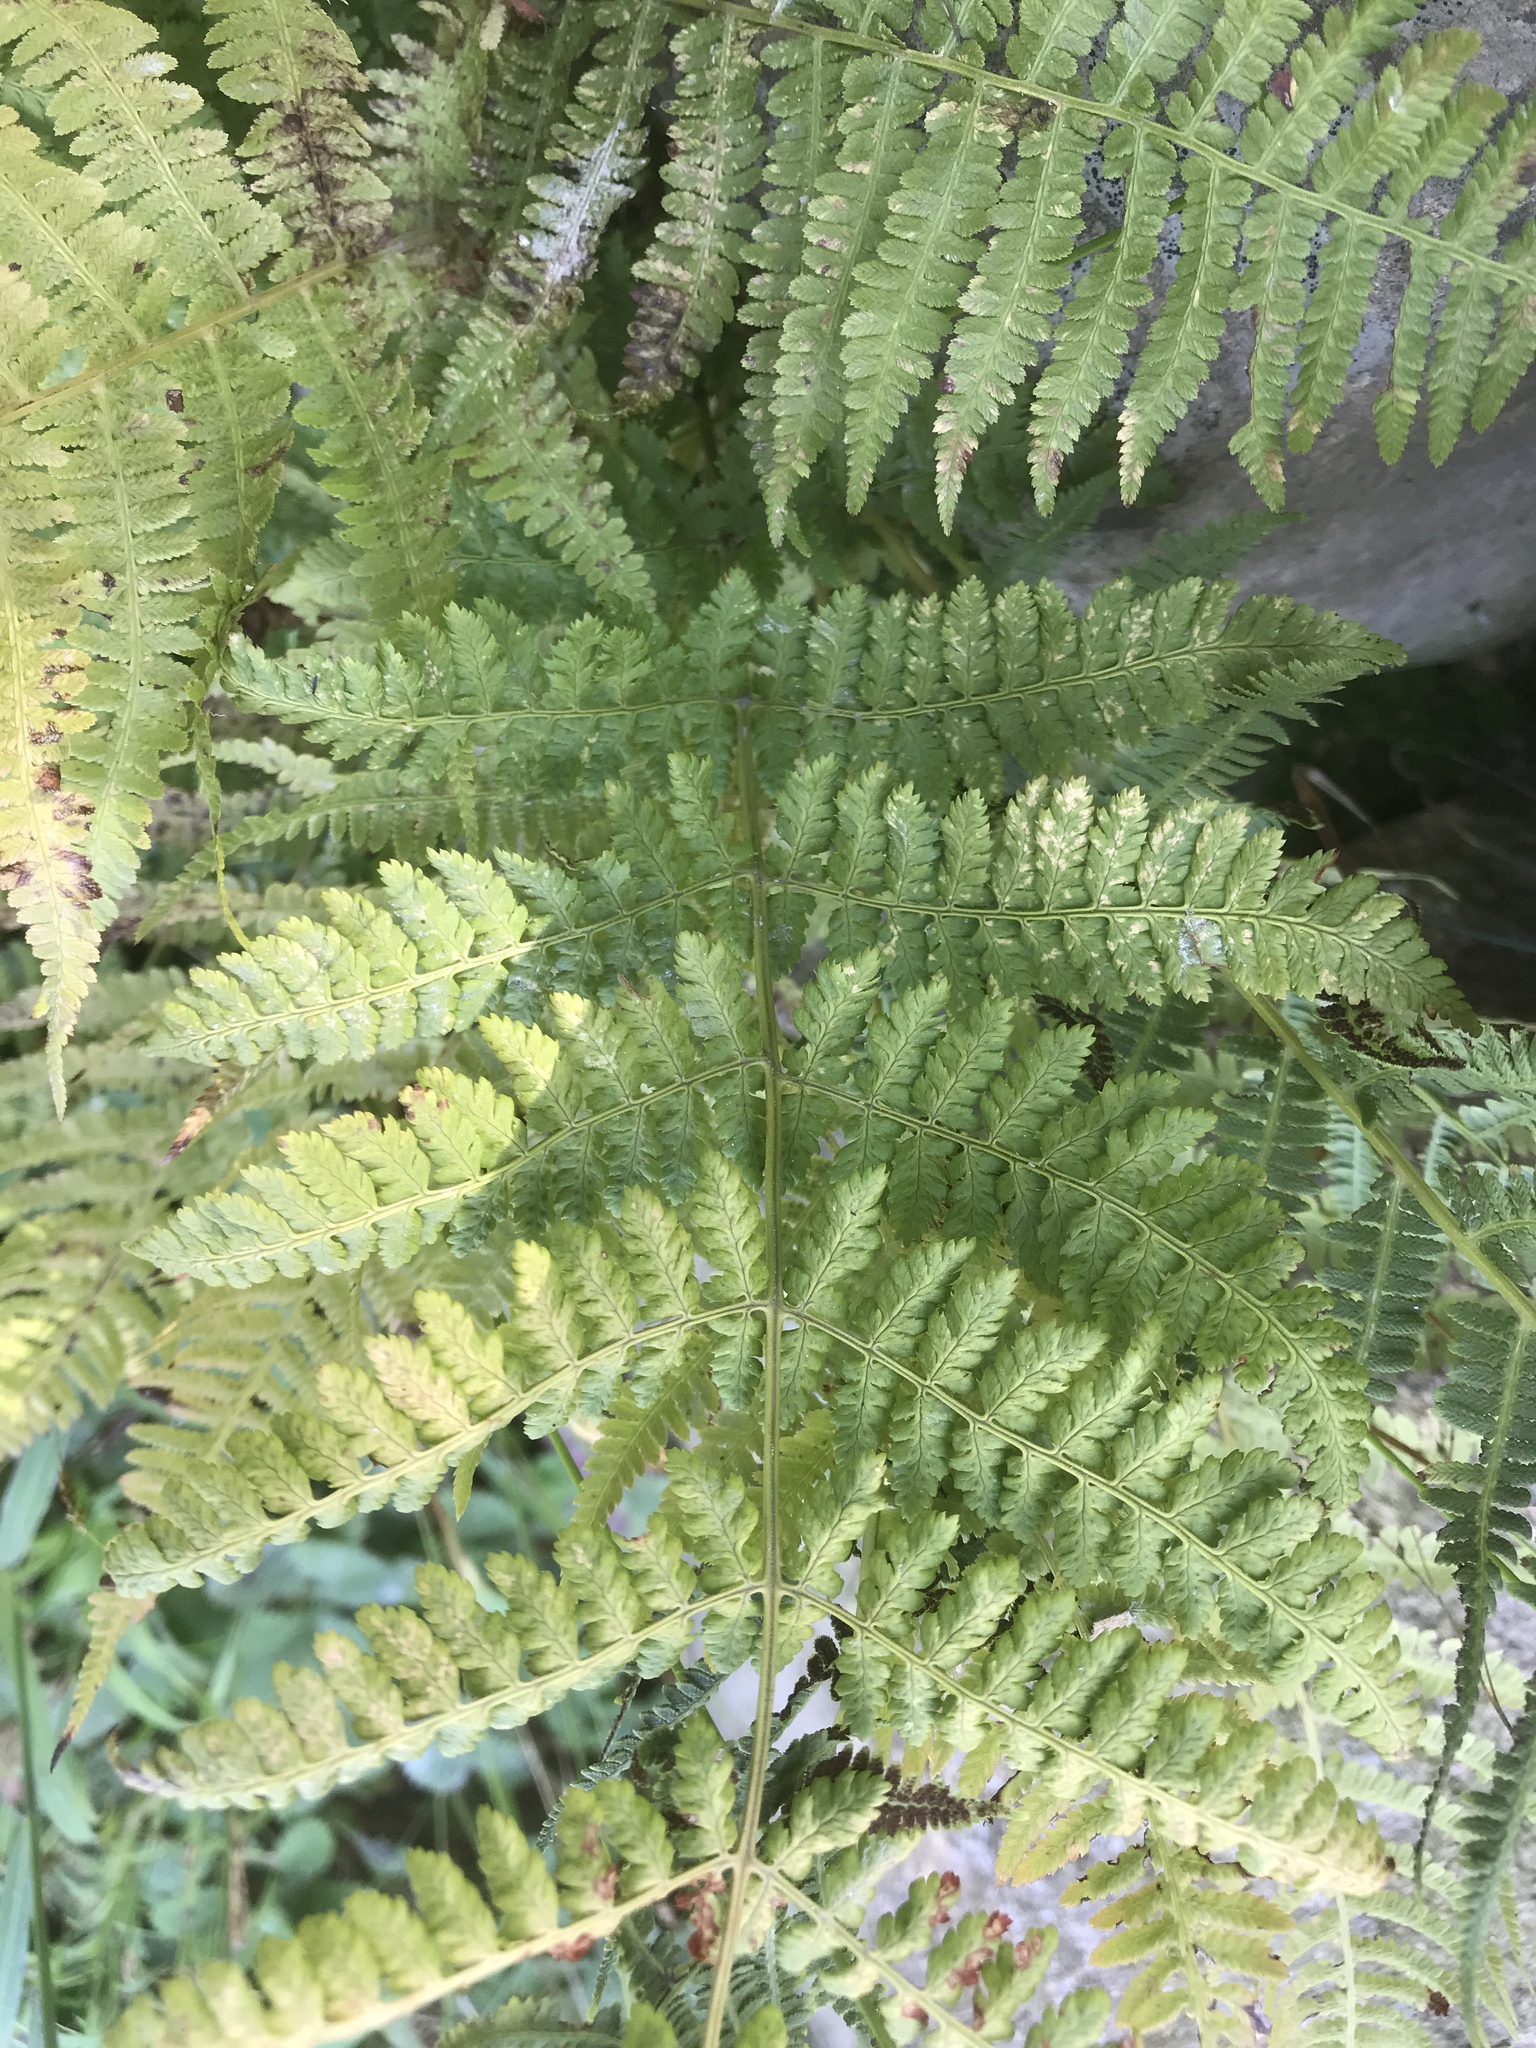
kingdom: Plantae
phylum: Tracheophyta
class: Polypodiopsida
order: Polypodiales
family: Dryopteridaceae
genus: Dryopteris
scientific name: Dryopteris intermedia
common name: Evergreen wood fern
